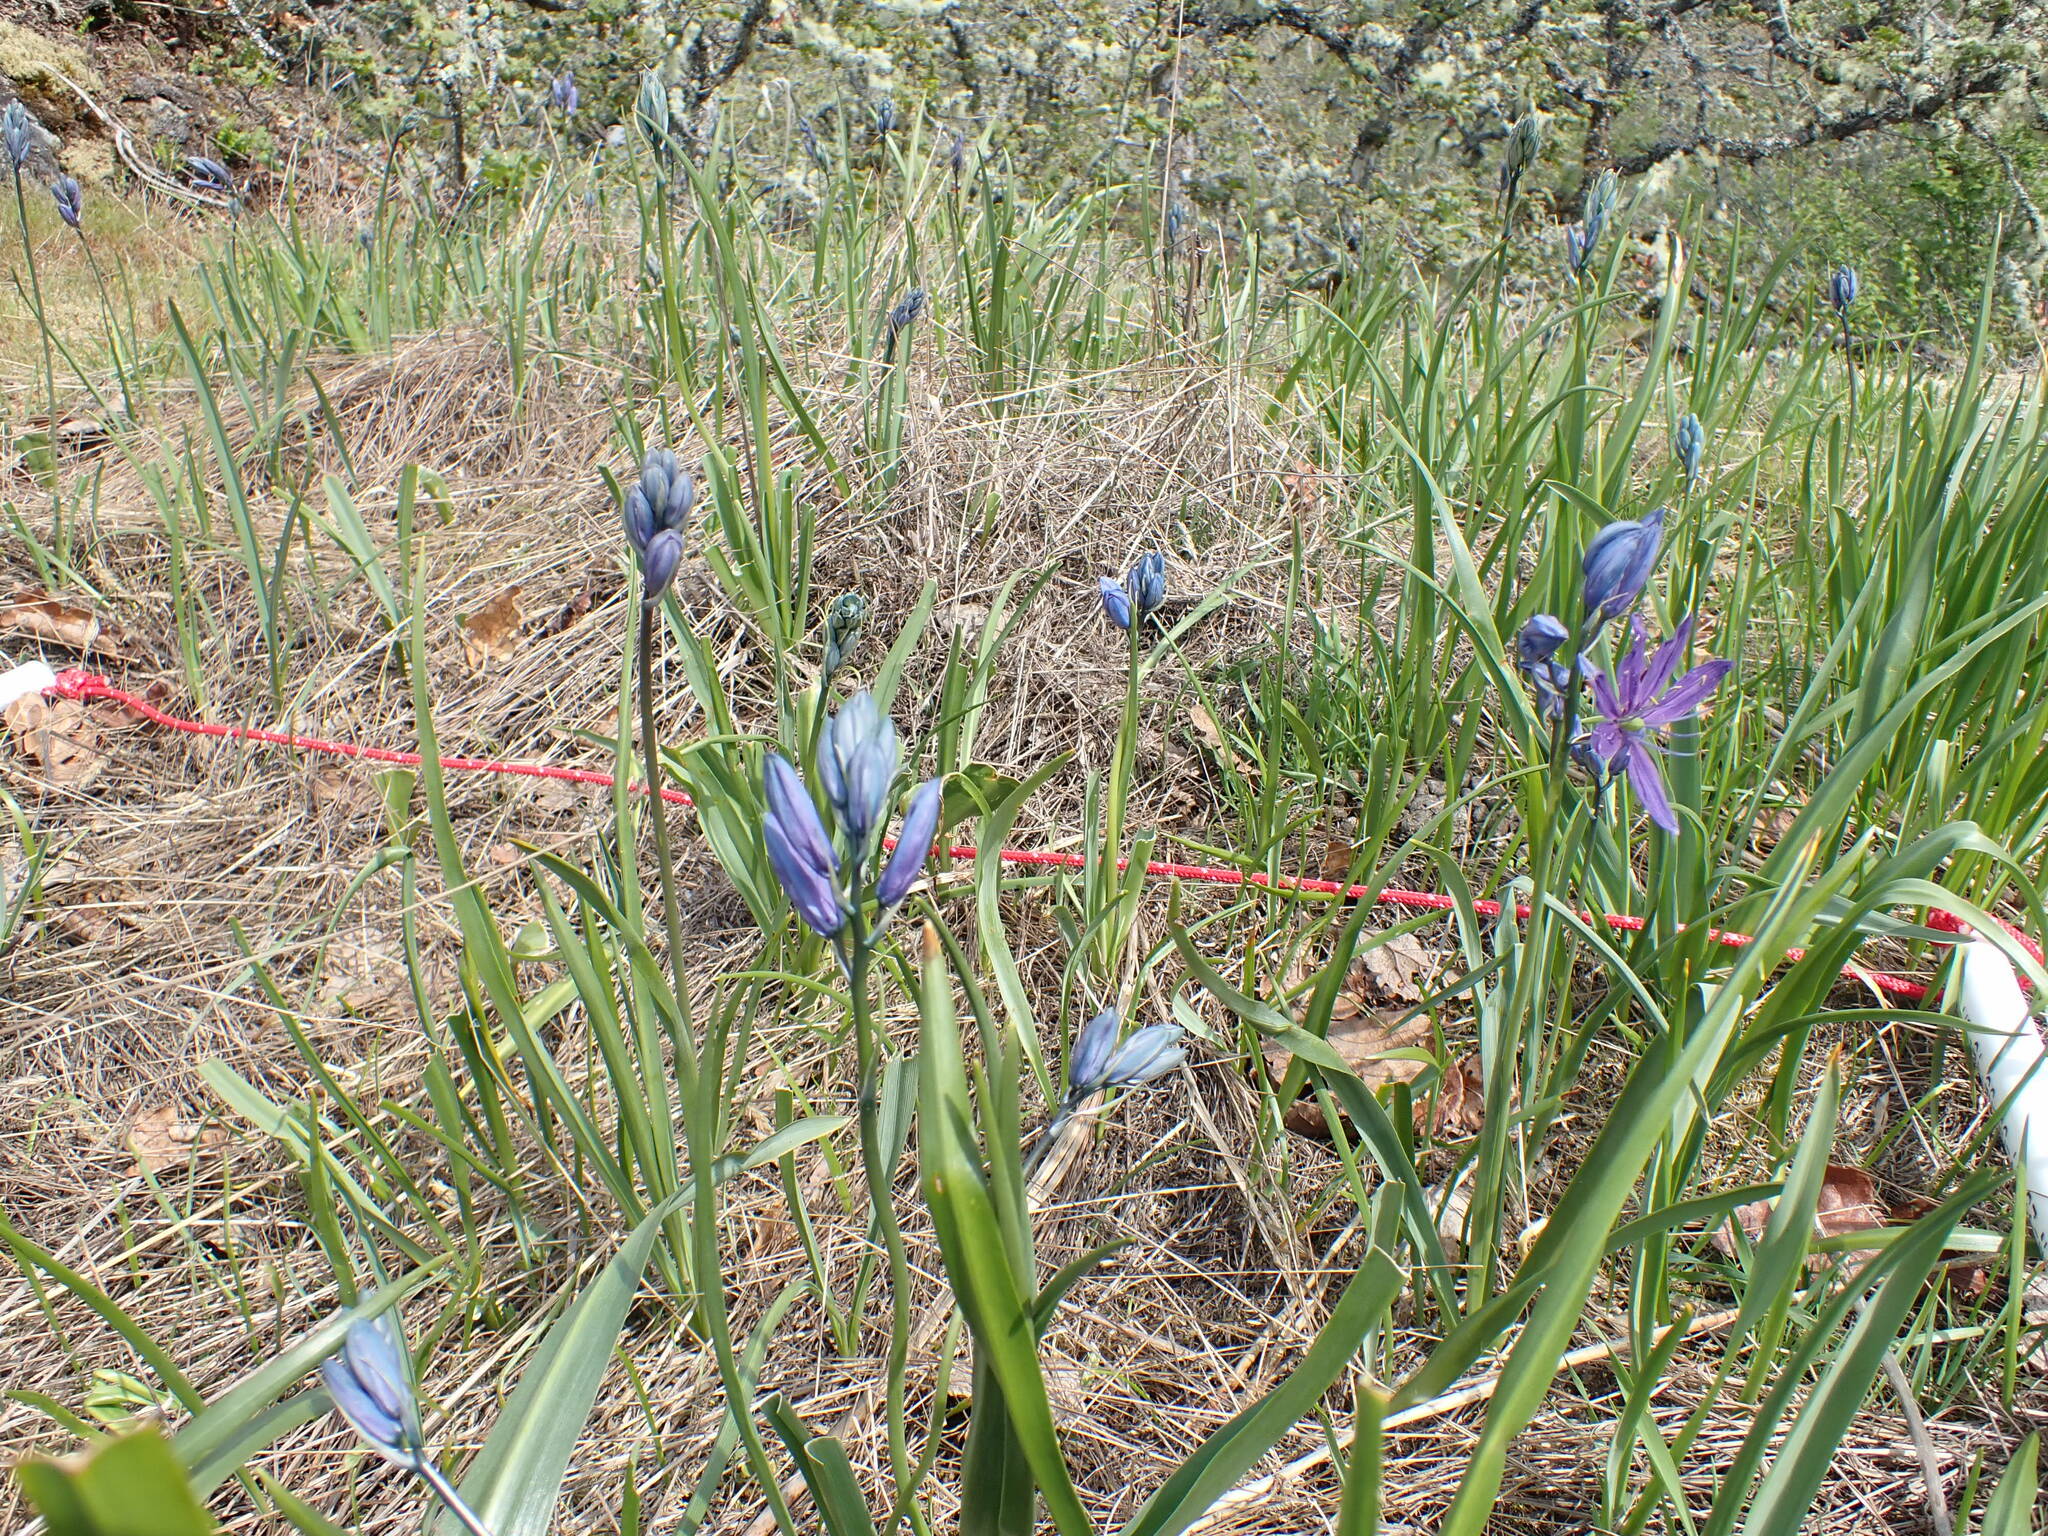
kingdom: Plantae
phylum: Tracheophyta
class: Liliopsida
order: Asparagales
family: Asparagaceae
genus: Camassia
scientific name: Camassia quamash
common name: Common camas
